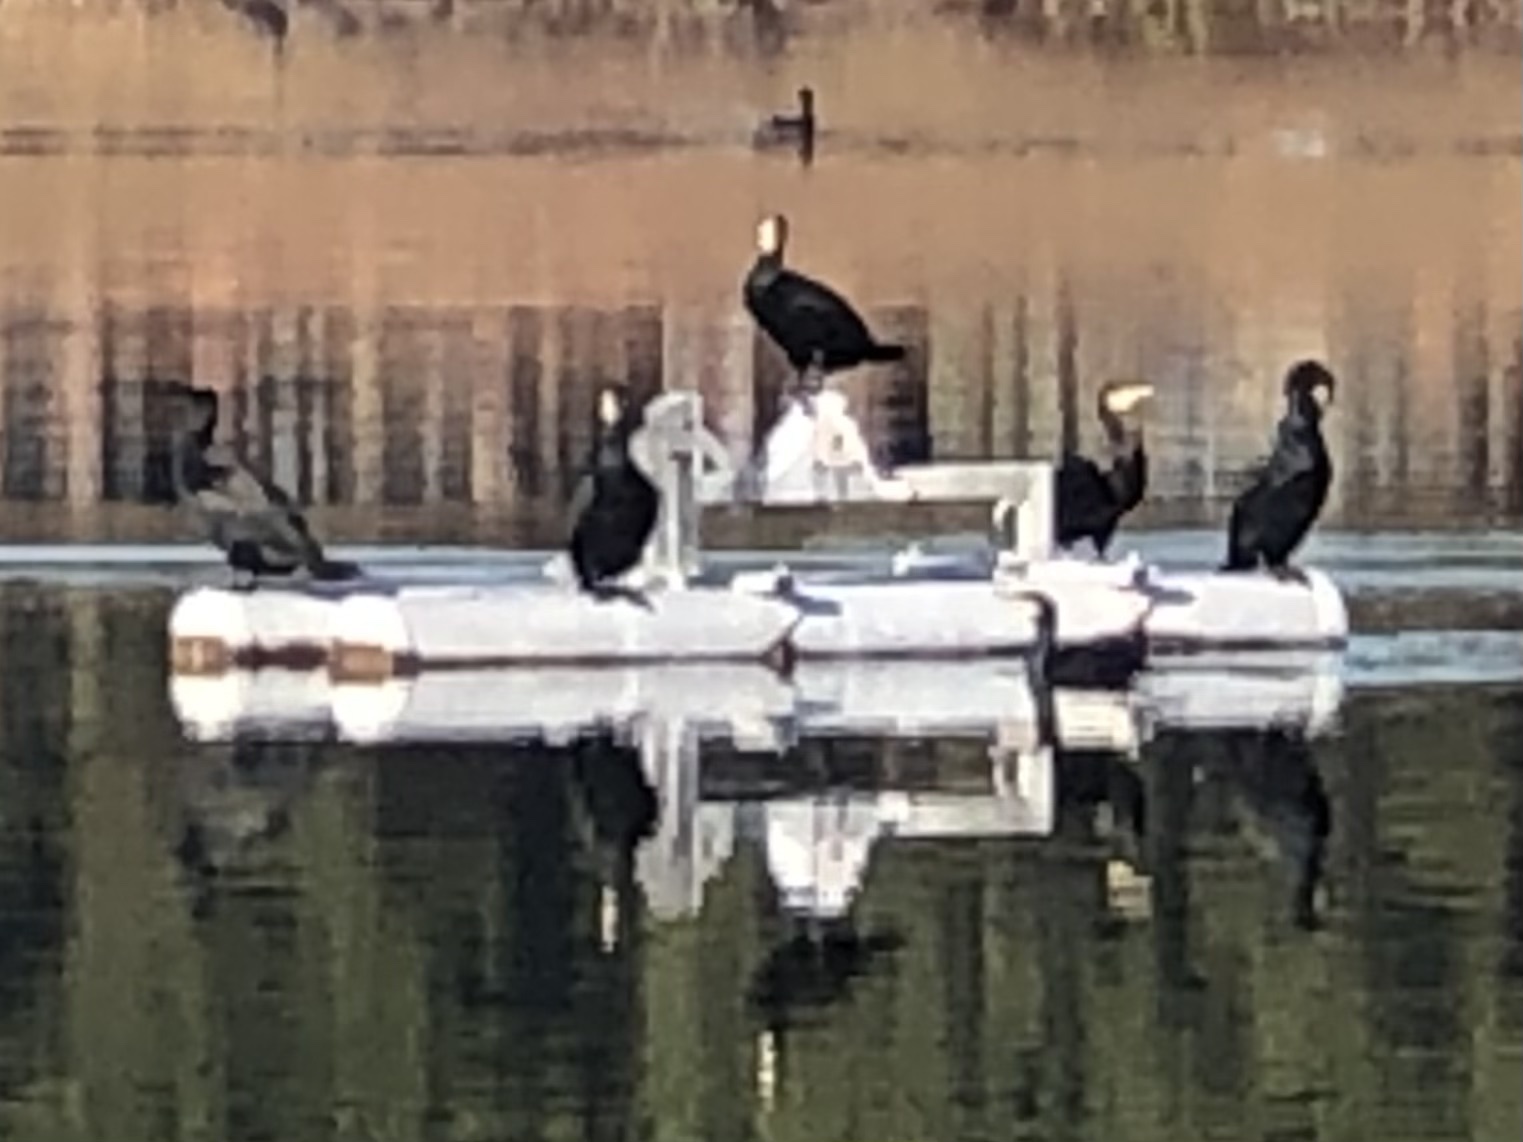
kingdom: Animalia
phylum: Chordata
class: Aves
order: Suliformes
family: Phalacrocoracidae
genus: Phalacrocorax
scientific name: Phalacrocorax carbo
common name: Great cormorant
